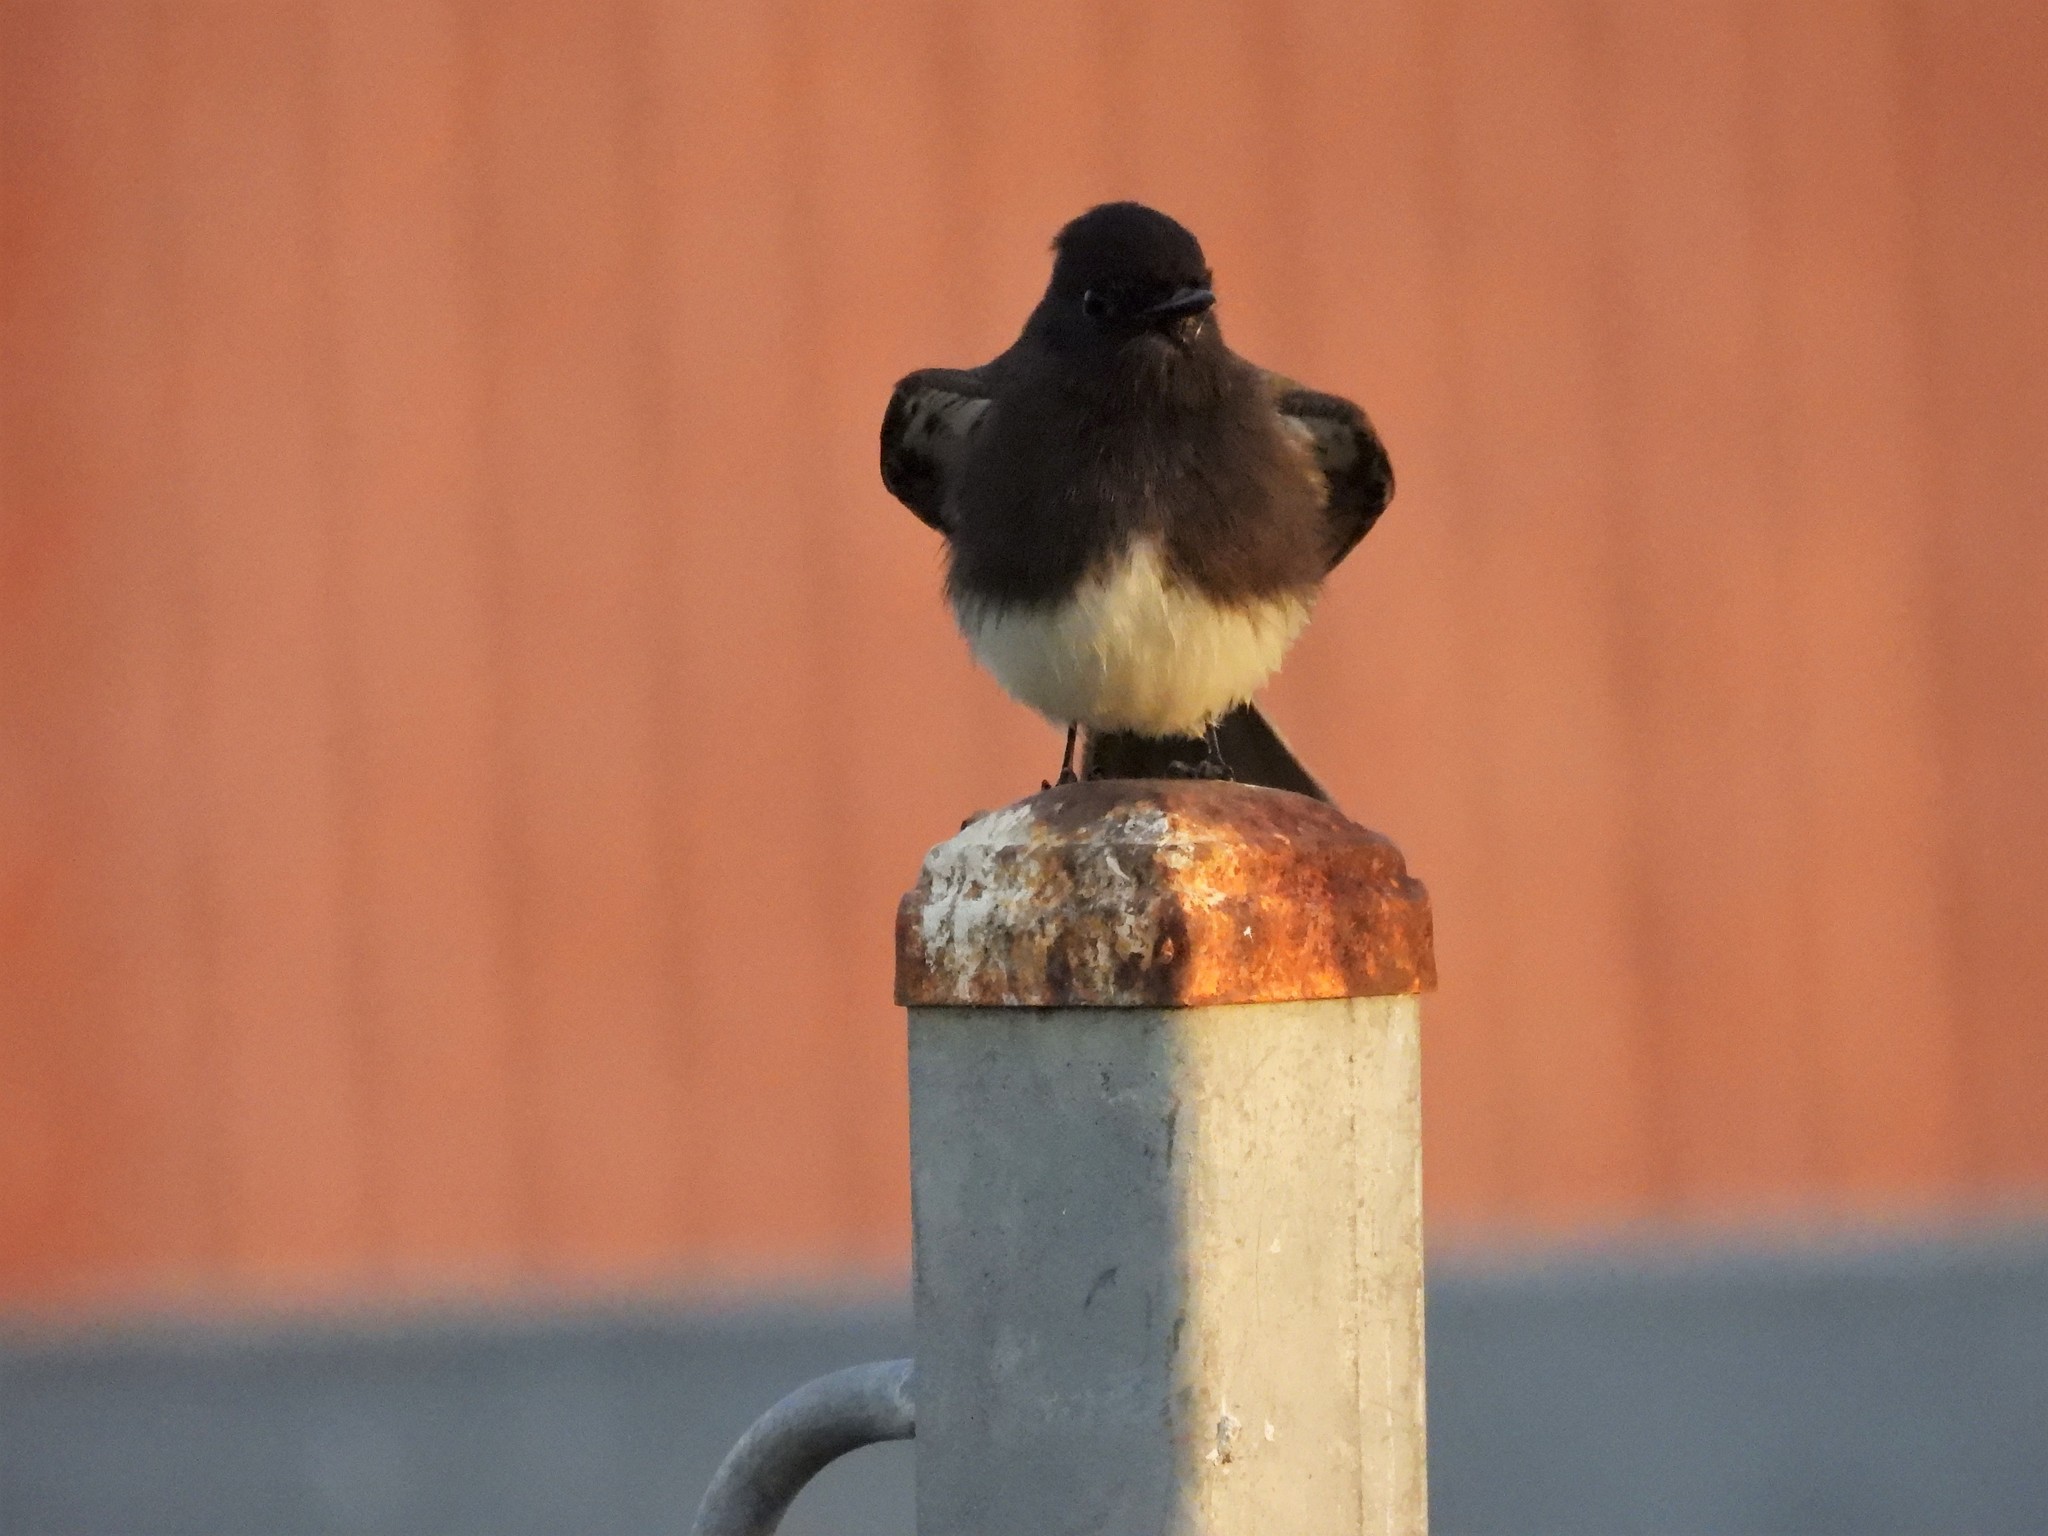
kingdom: Animalia
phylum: Chordata
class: Aves
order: Passeriformes
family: Tyrannidae
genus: Sayornis
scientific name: Sayornis nigricans
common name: Black phoebe
